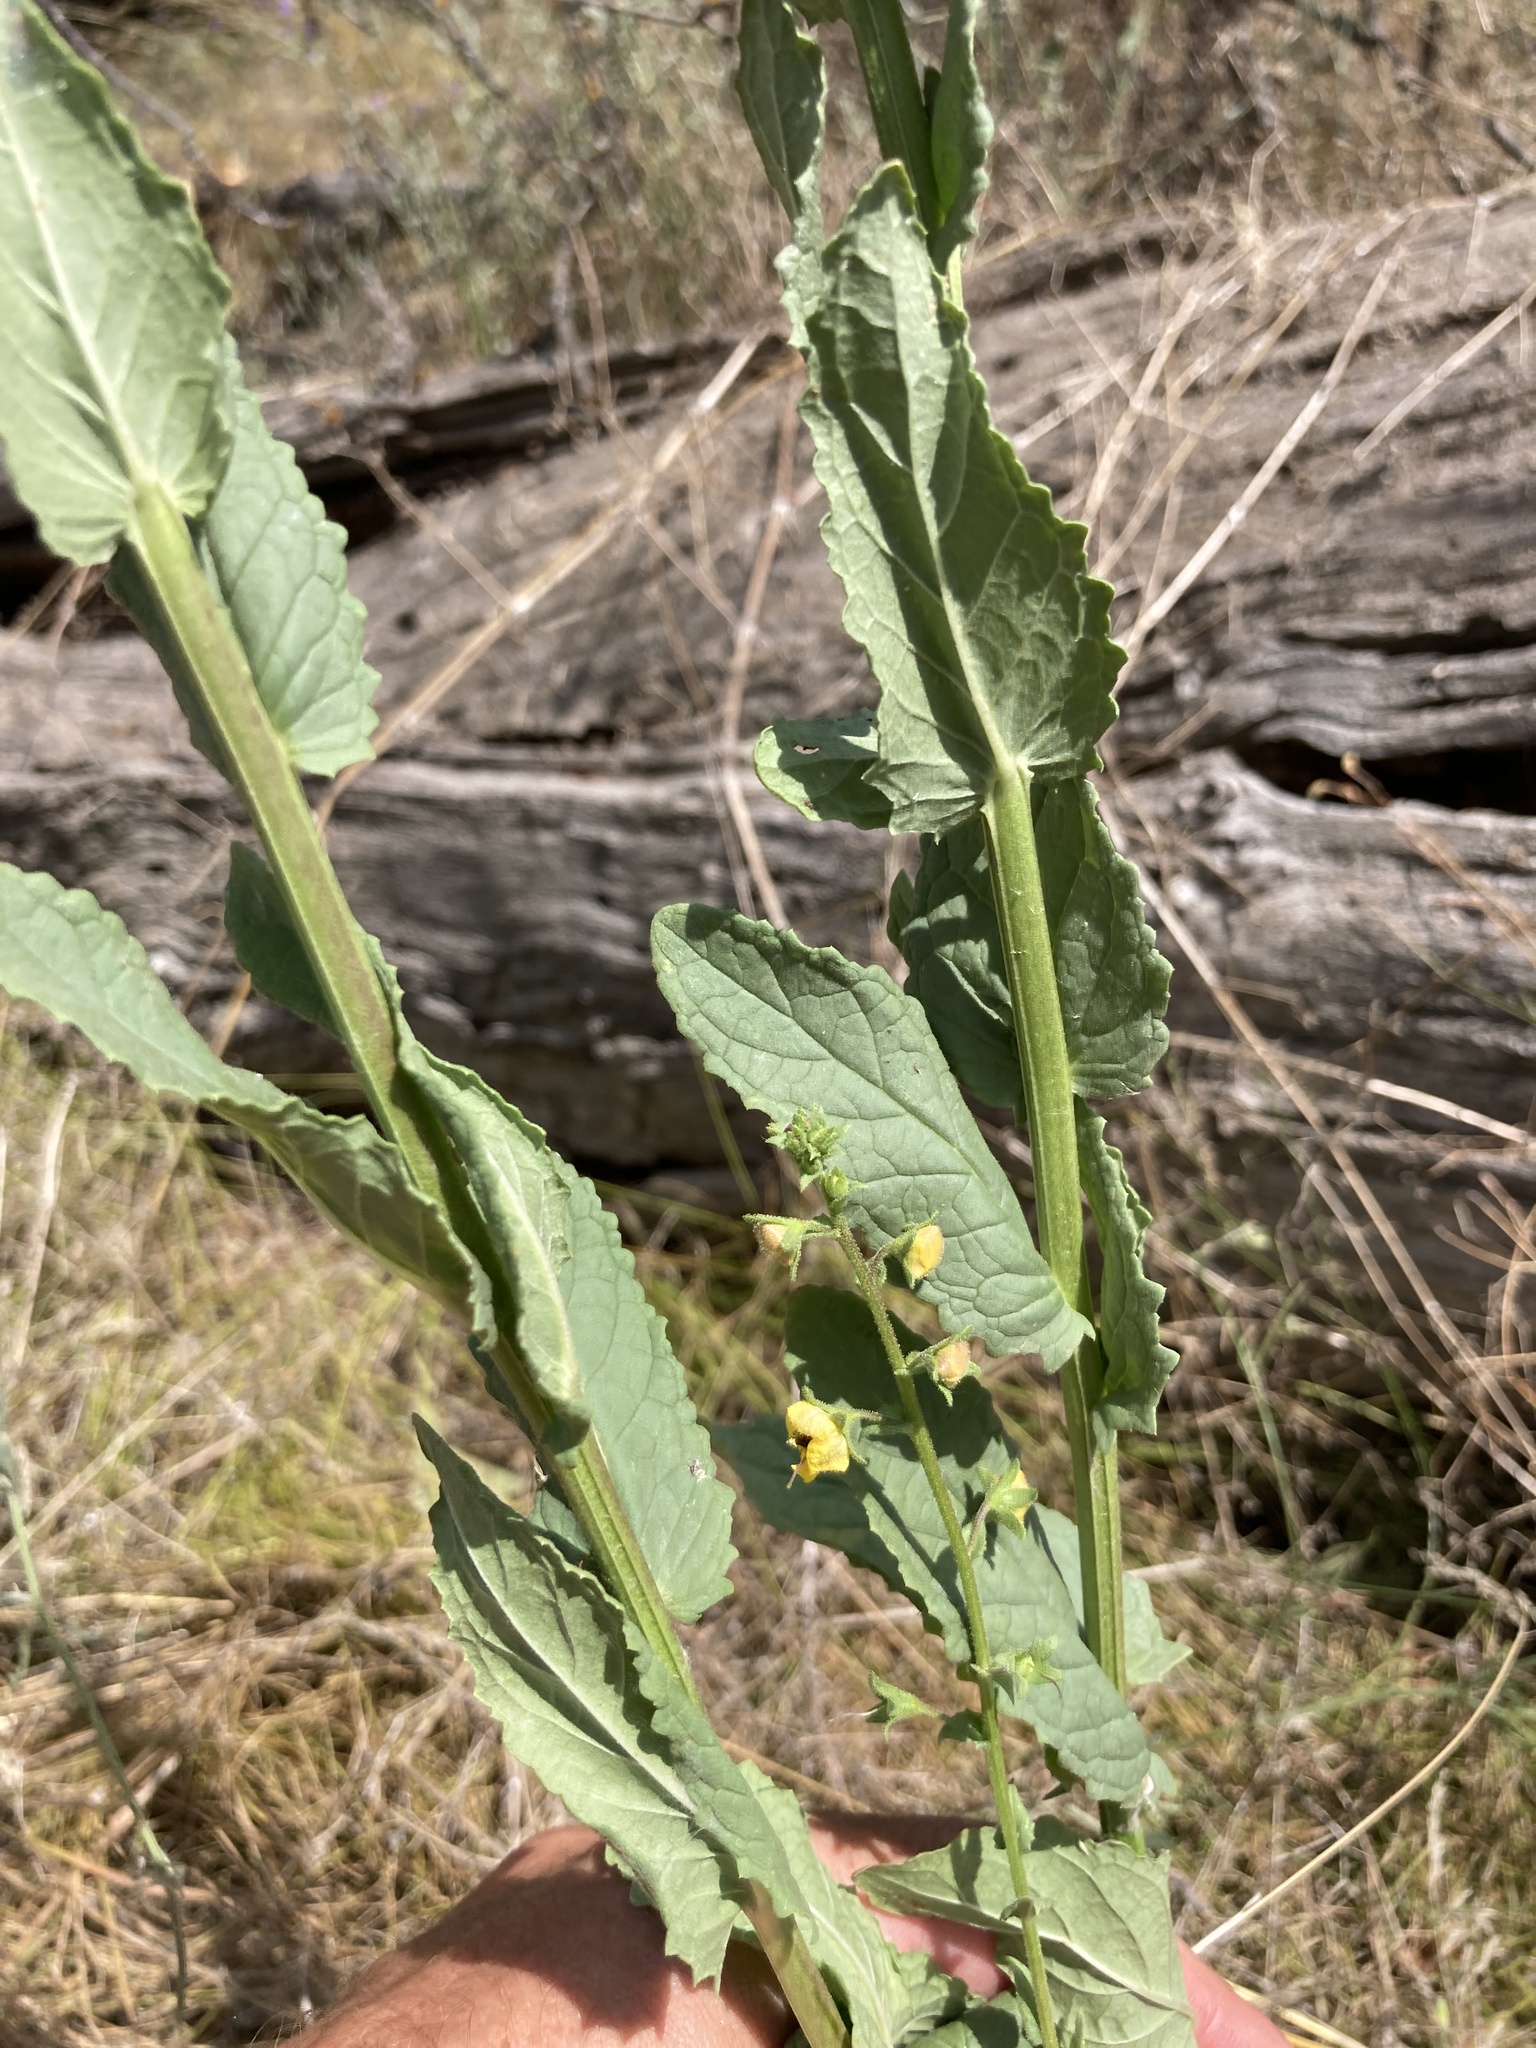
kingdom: Plantae
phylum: Tracheophyta
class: Magnoliopsida
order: Lamiales
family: Scrophulariaceae
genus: Verbascum
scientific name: Verbascum blattaria
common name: Moth mullein
